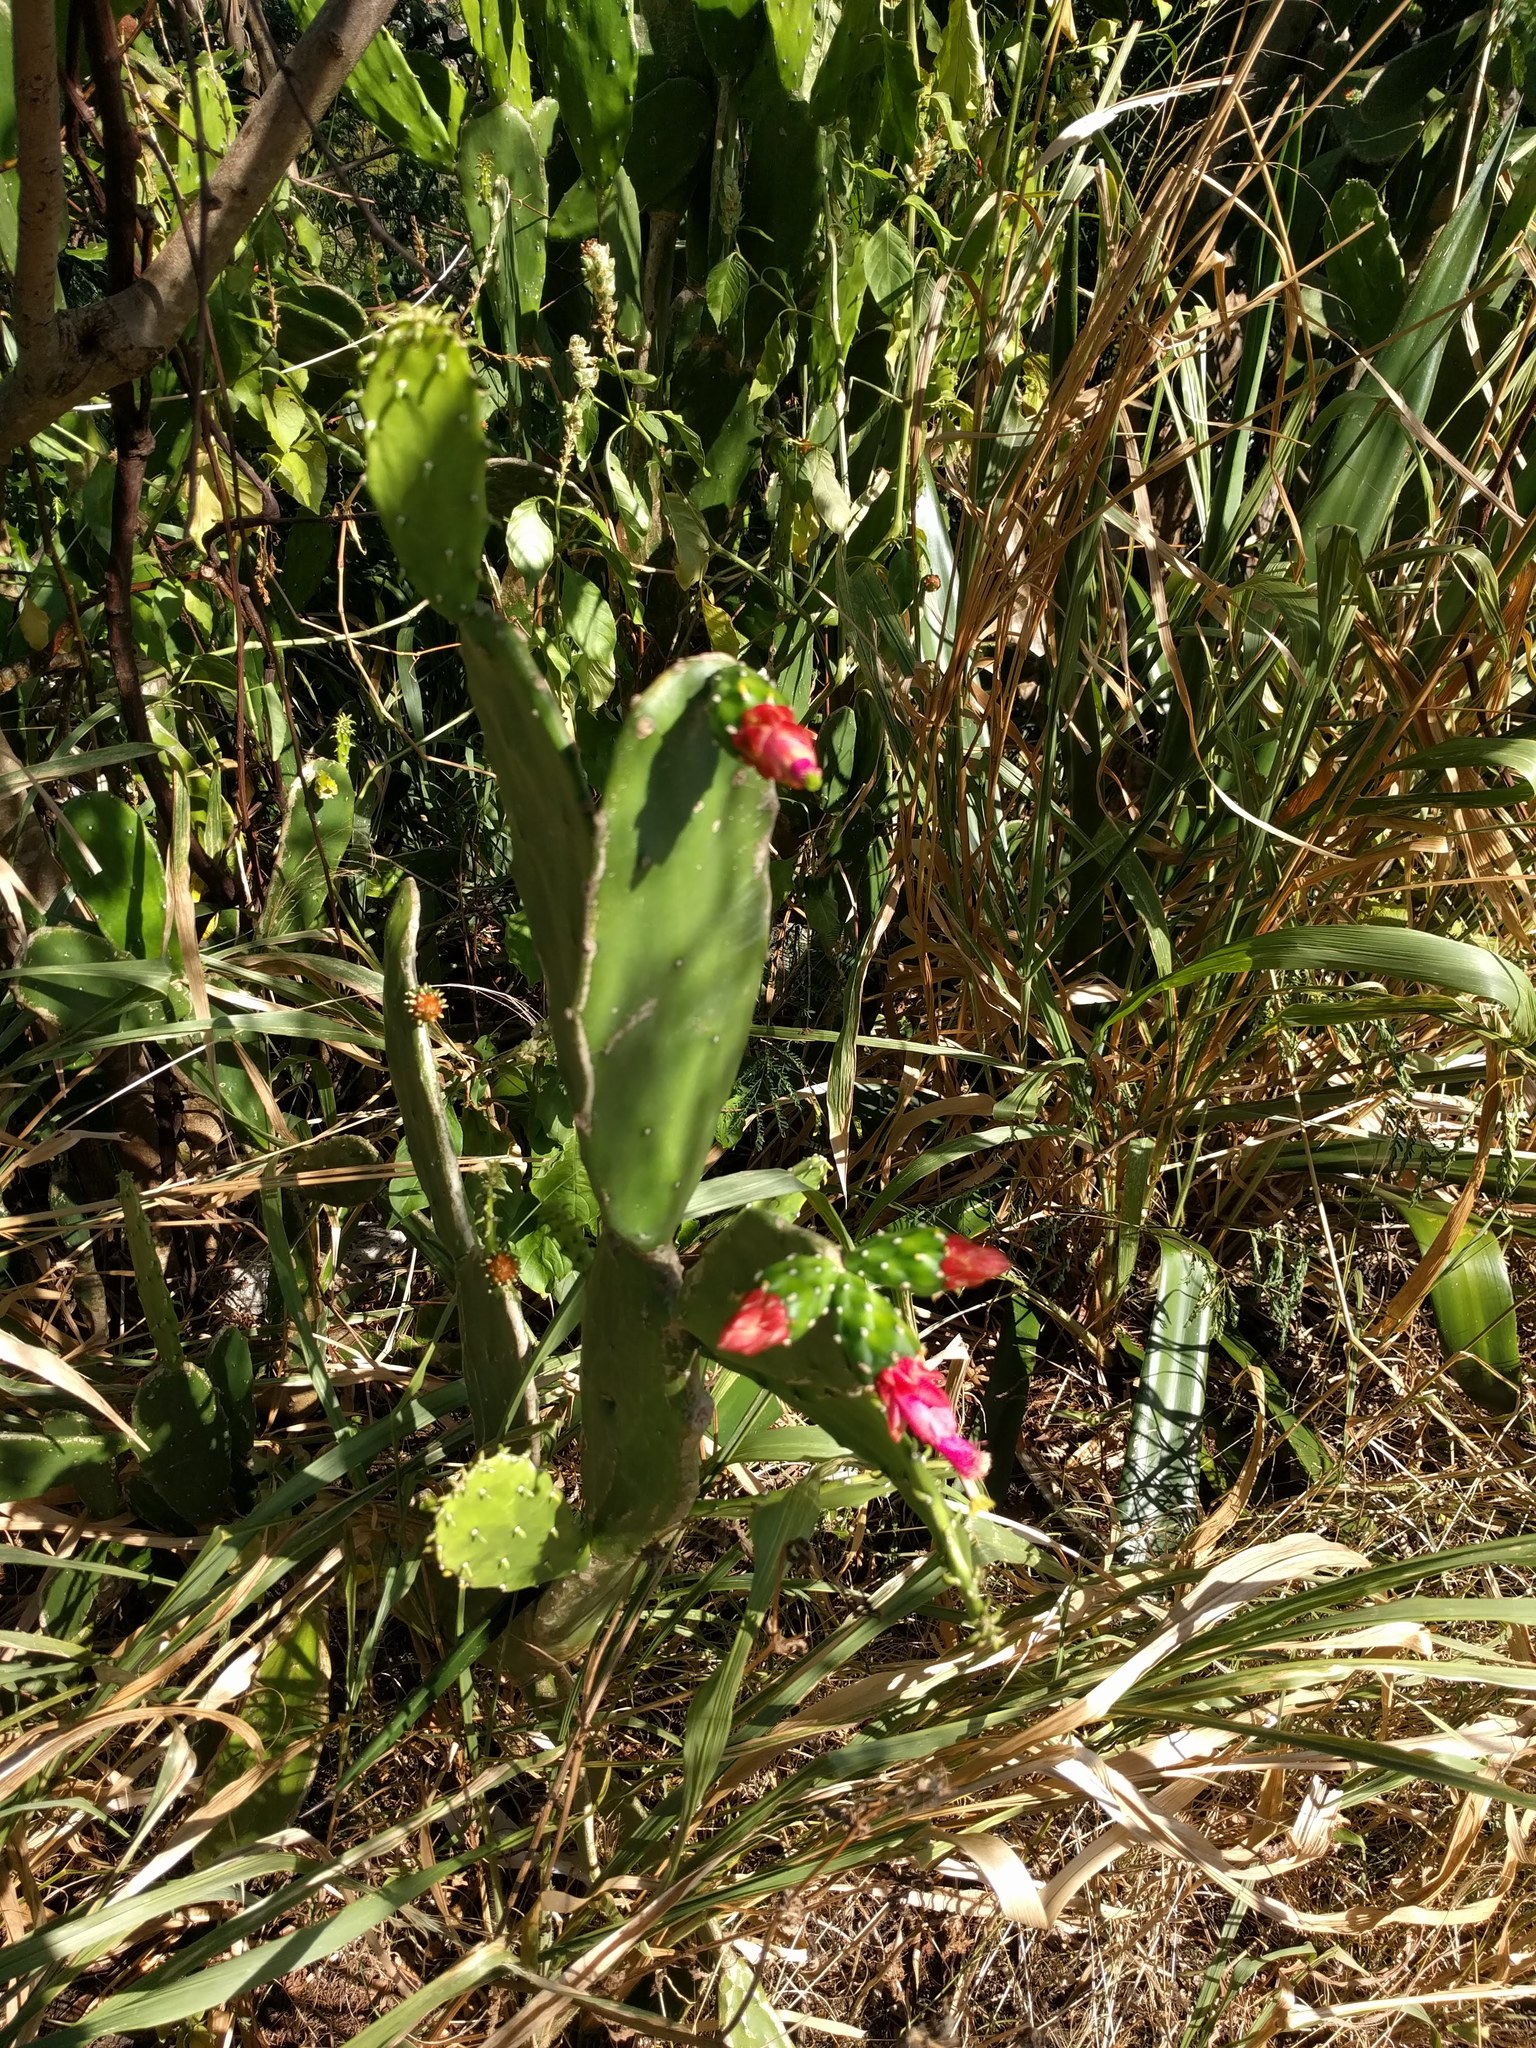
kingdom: Plantae
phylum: Tracheophyta
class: Magnoliopsida
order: Caryophyllales
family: Cactaceae
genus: Opuntia
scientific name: Opuntia cochenillifera
